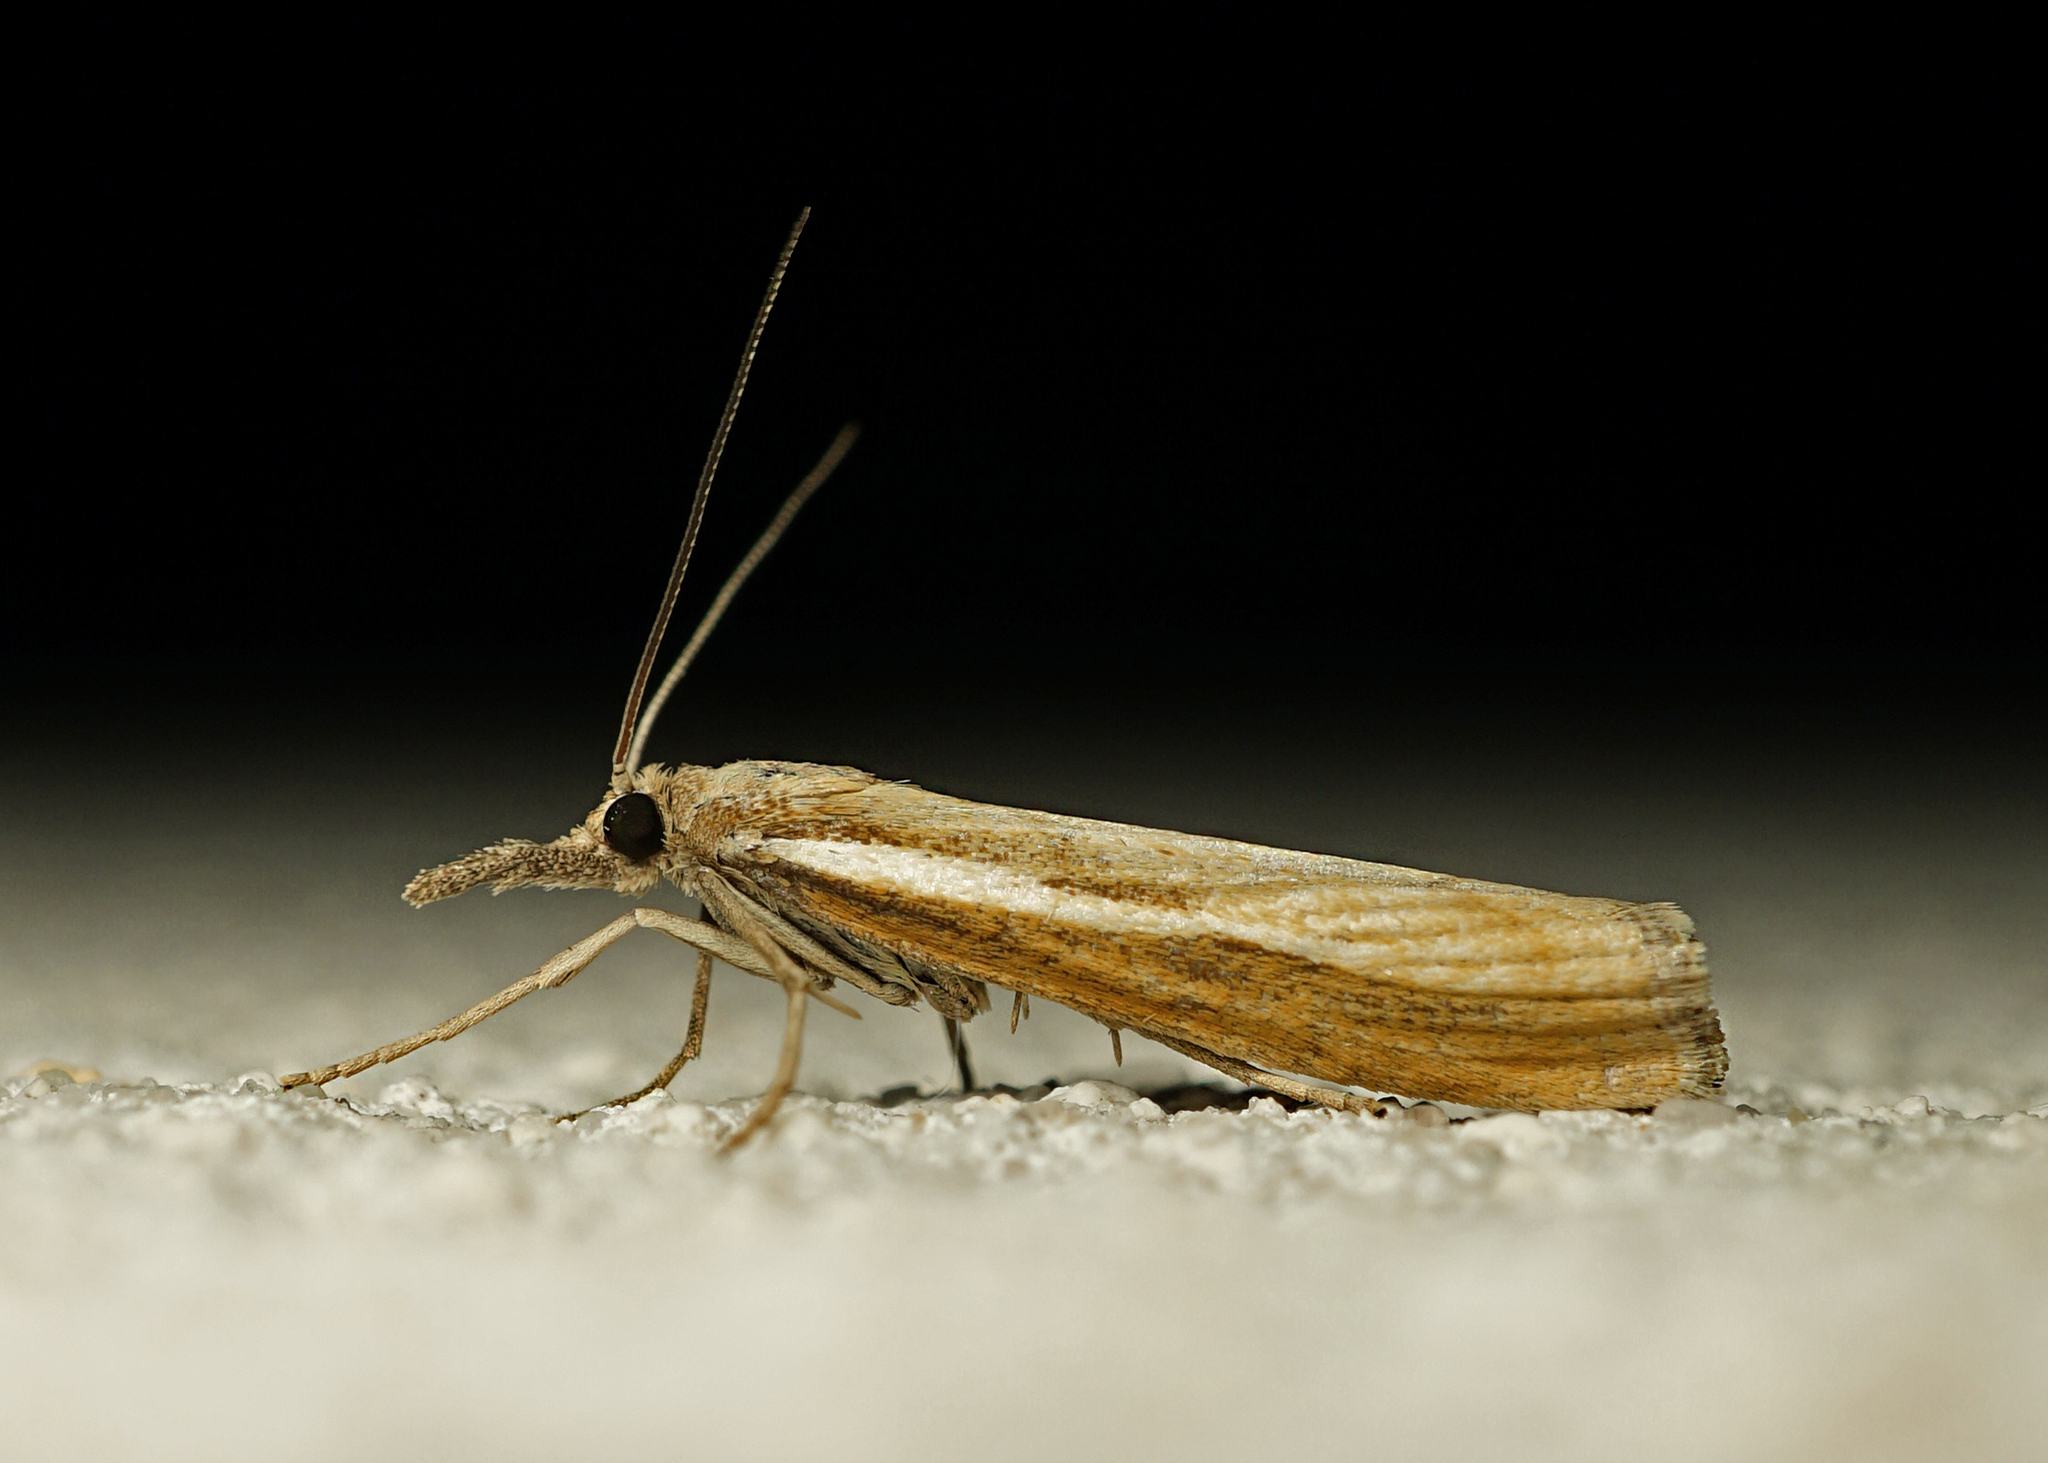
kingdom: Animalia
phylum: Arthropoda
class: Insecta
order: Lepidoptera
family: Crambidae
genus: Agriphila
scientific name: Agriphila tristellus
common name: Common grass-veneer
